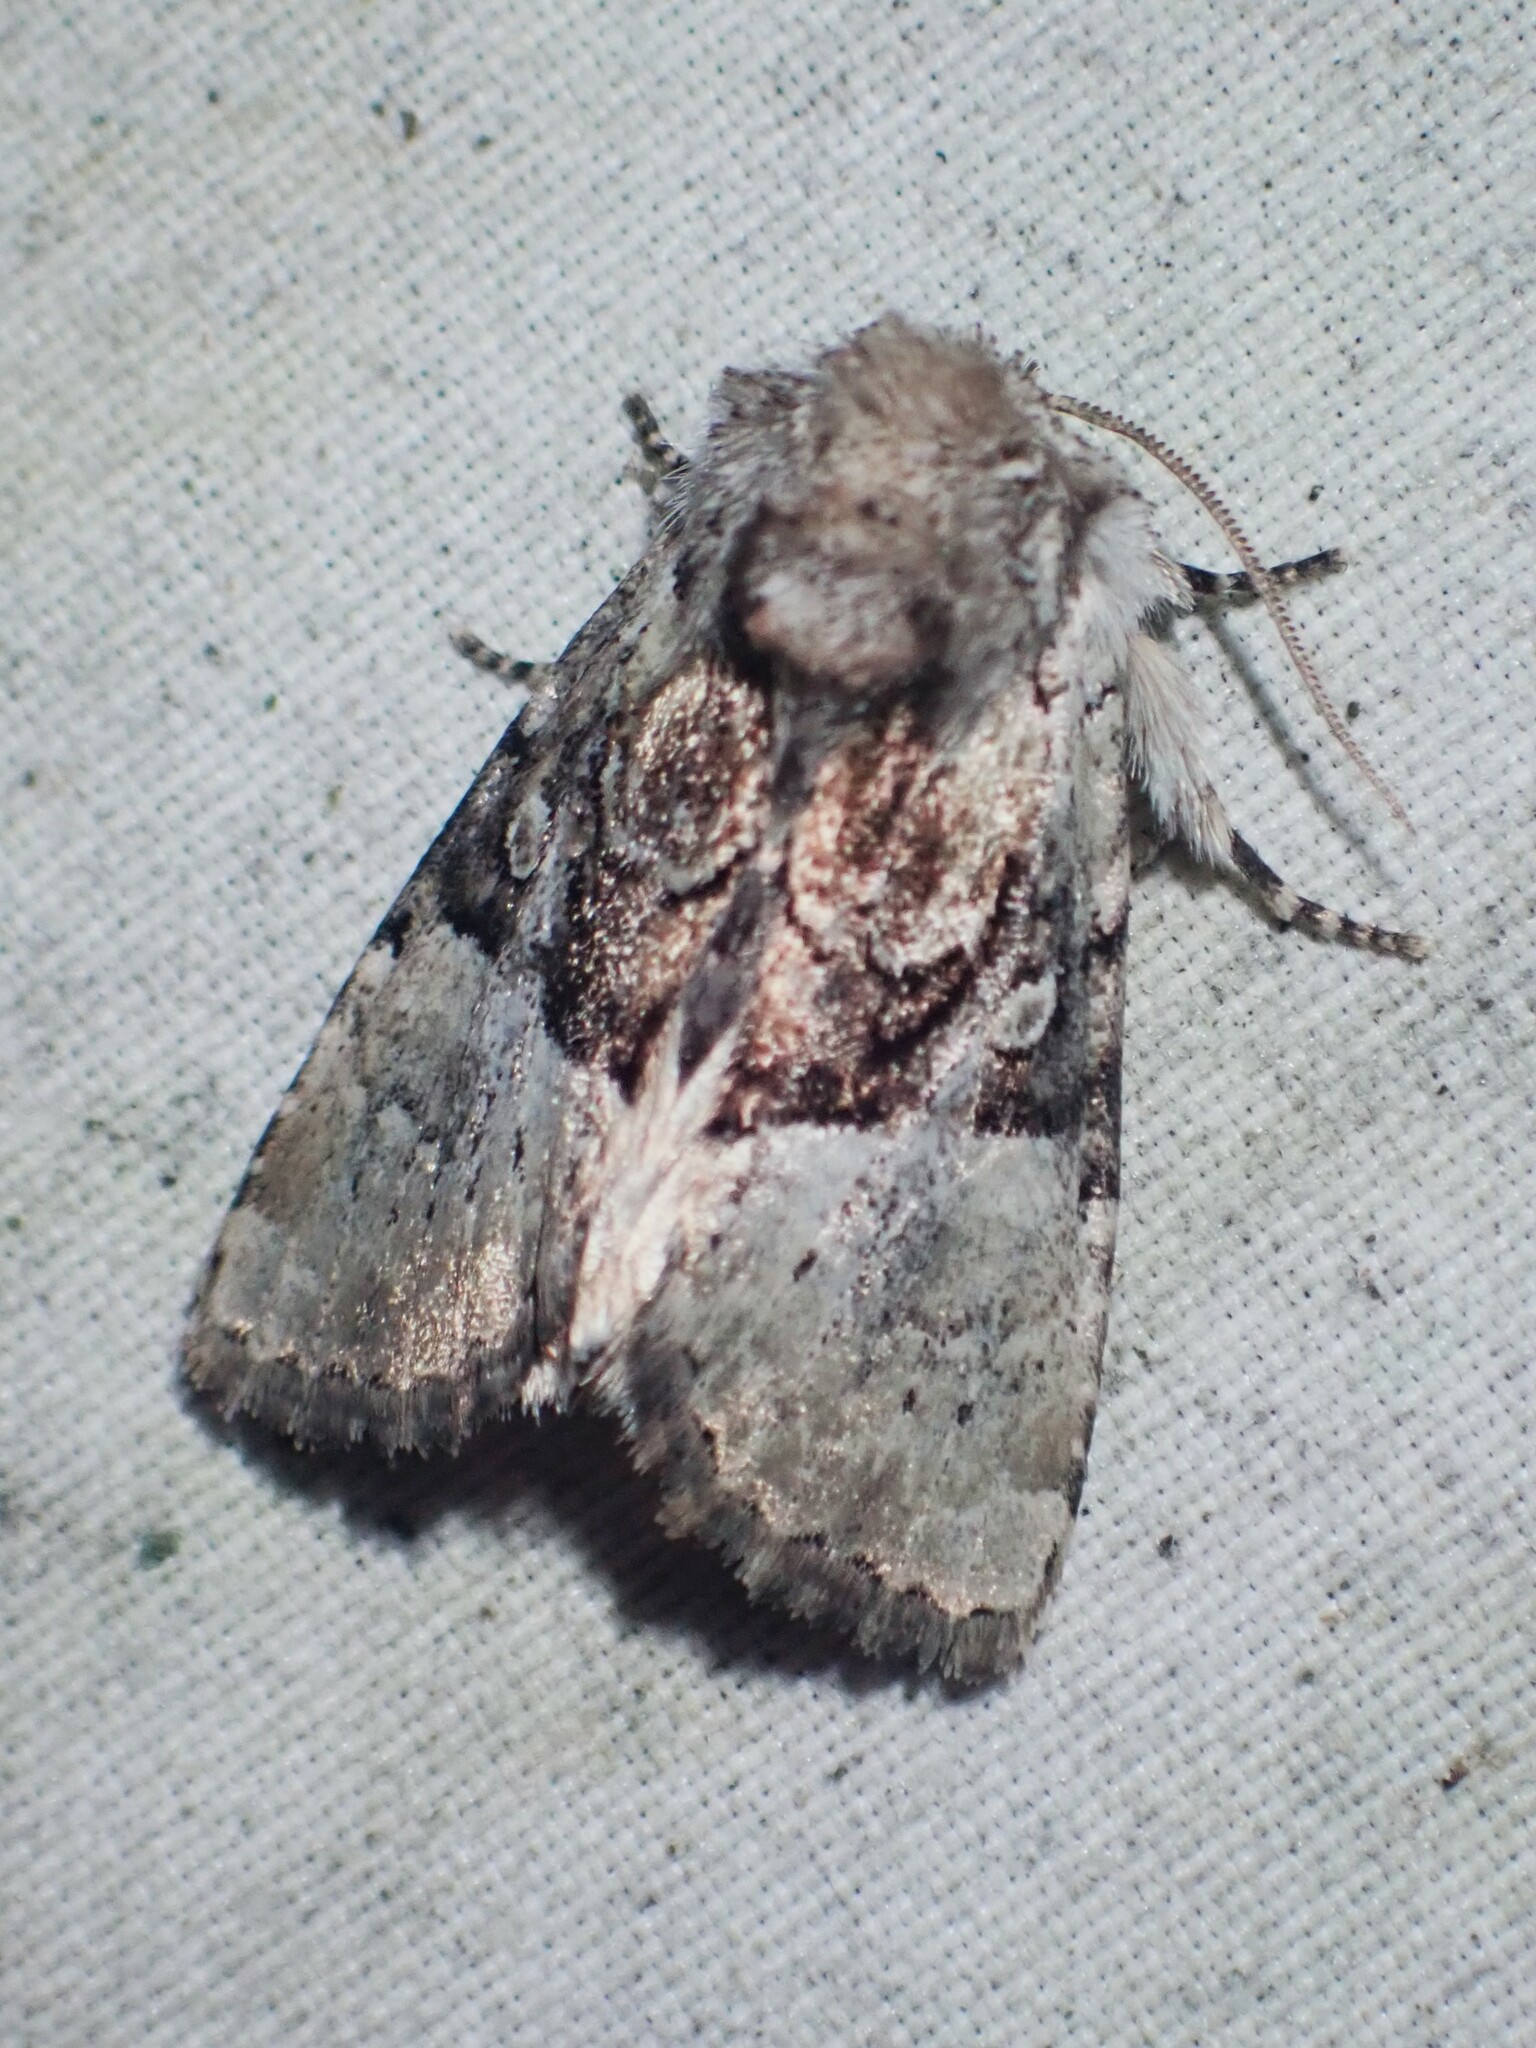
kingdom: Animalia
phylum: Arthropoda
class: Insecta
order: Lepidoptera
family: Noctuidae
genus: Meropleon
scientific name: Meropleon diversicolor
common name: Multicolored sedgeminer moth
